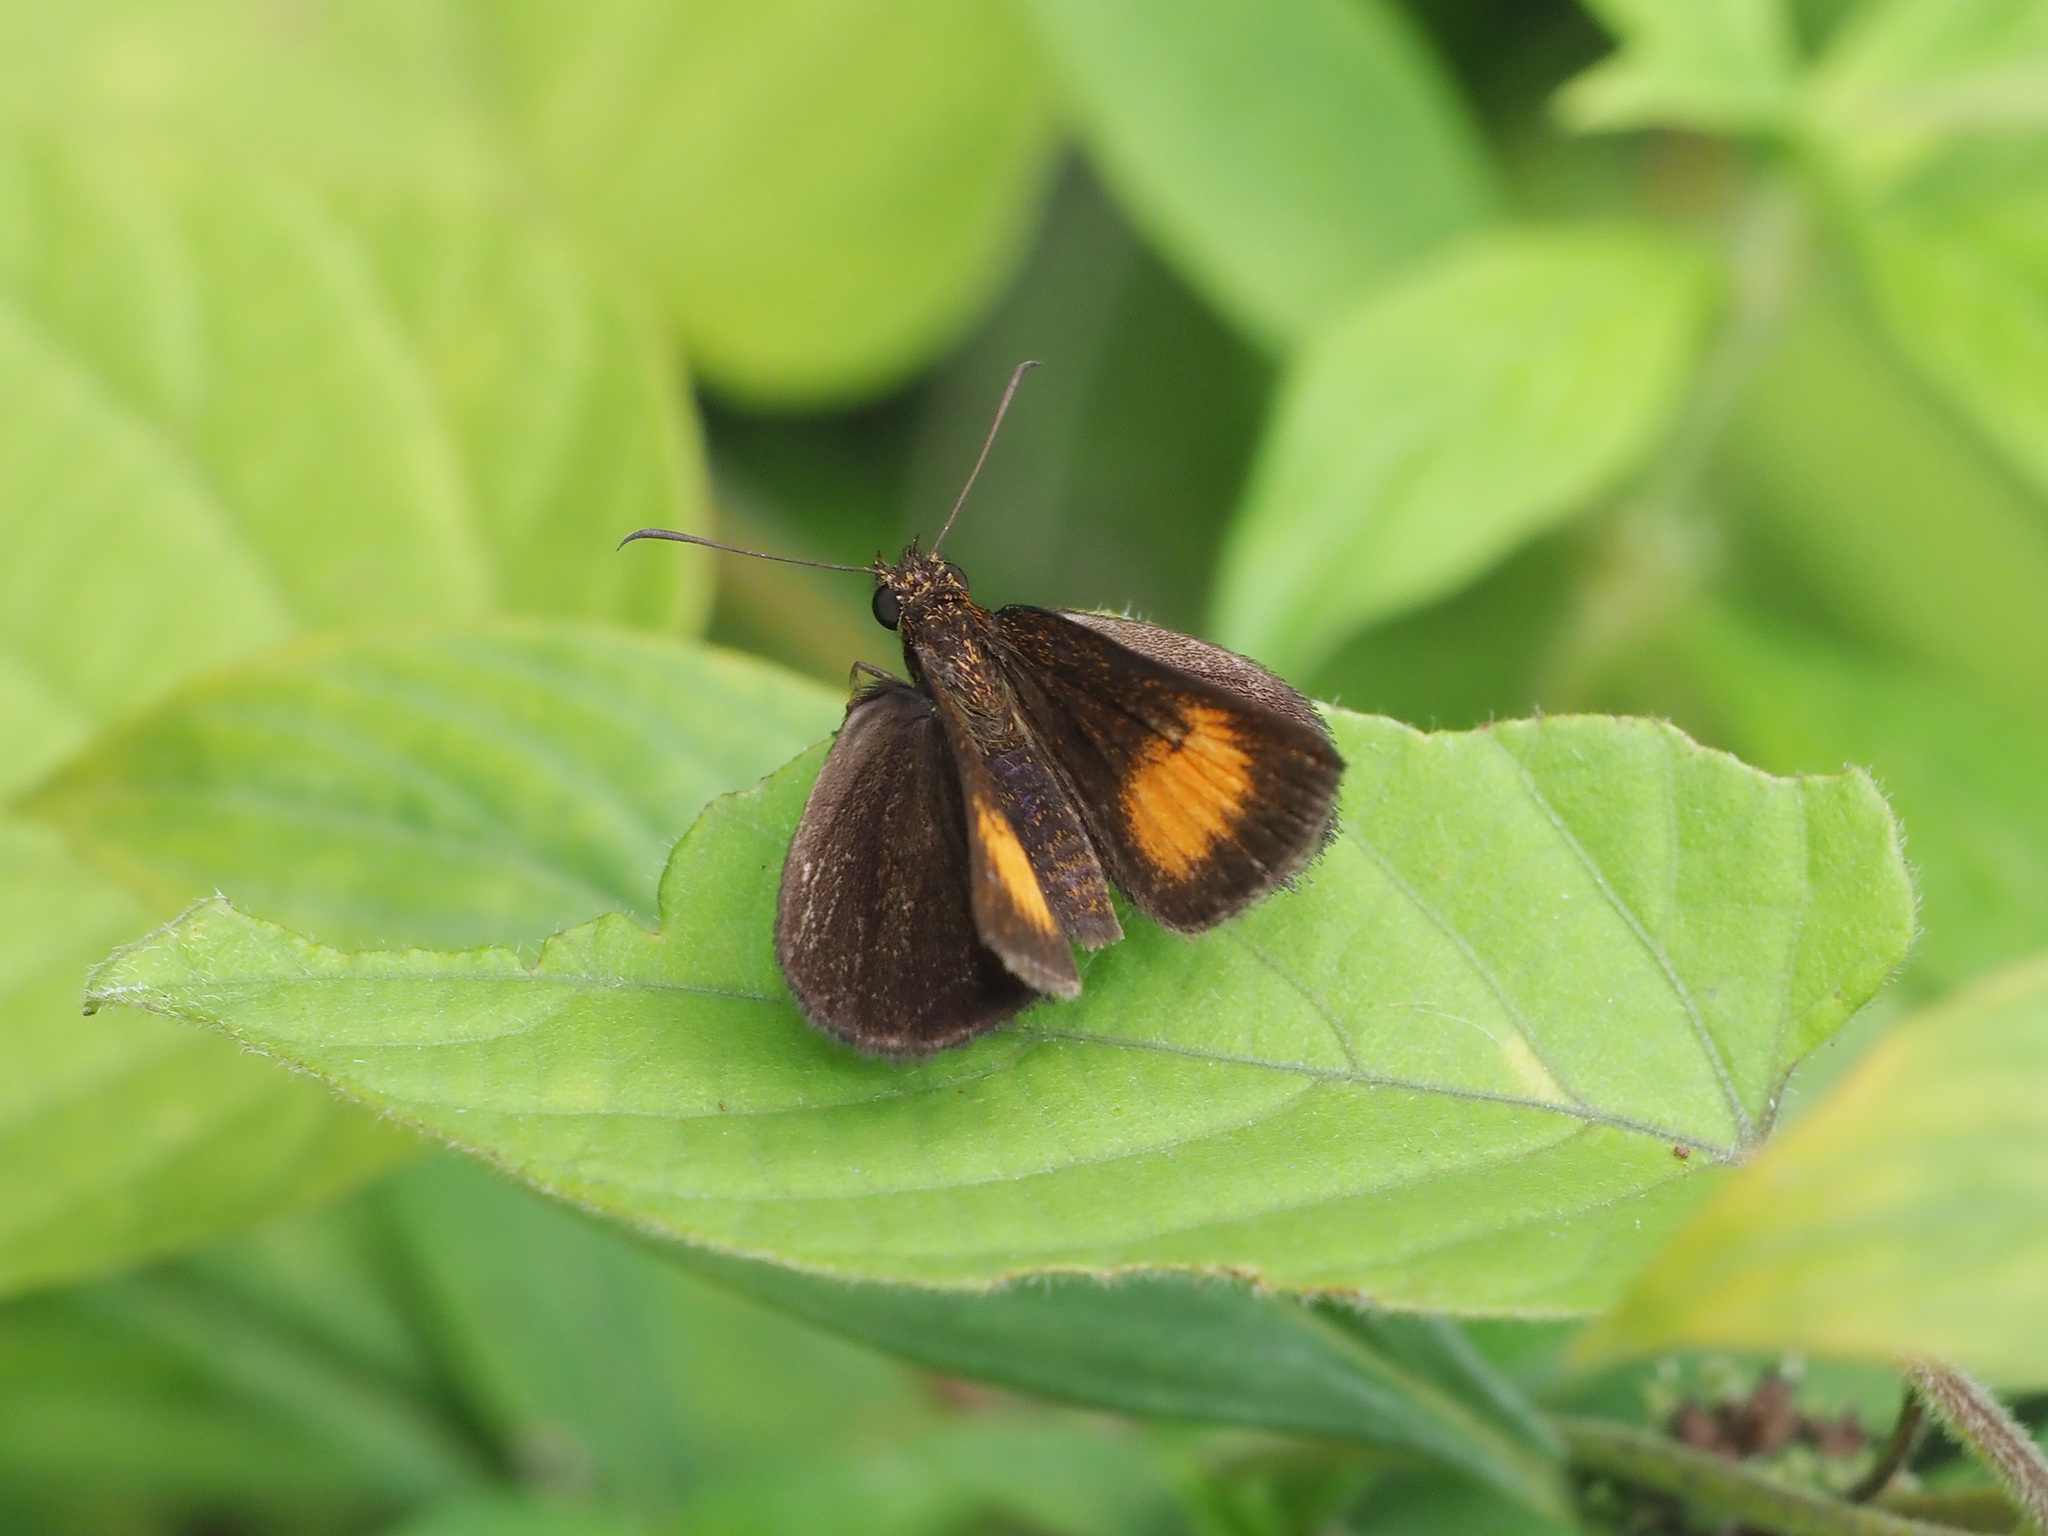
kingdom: Animalia
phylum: Arthropoda
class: Insecta
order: Lepidoptera
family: Hesperiidae
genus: Iambrix
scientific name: Iambrix Idmon obliquans
